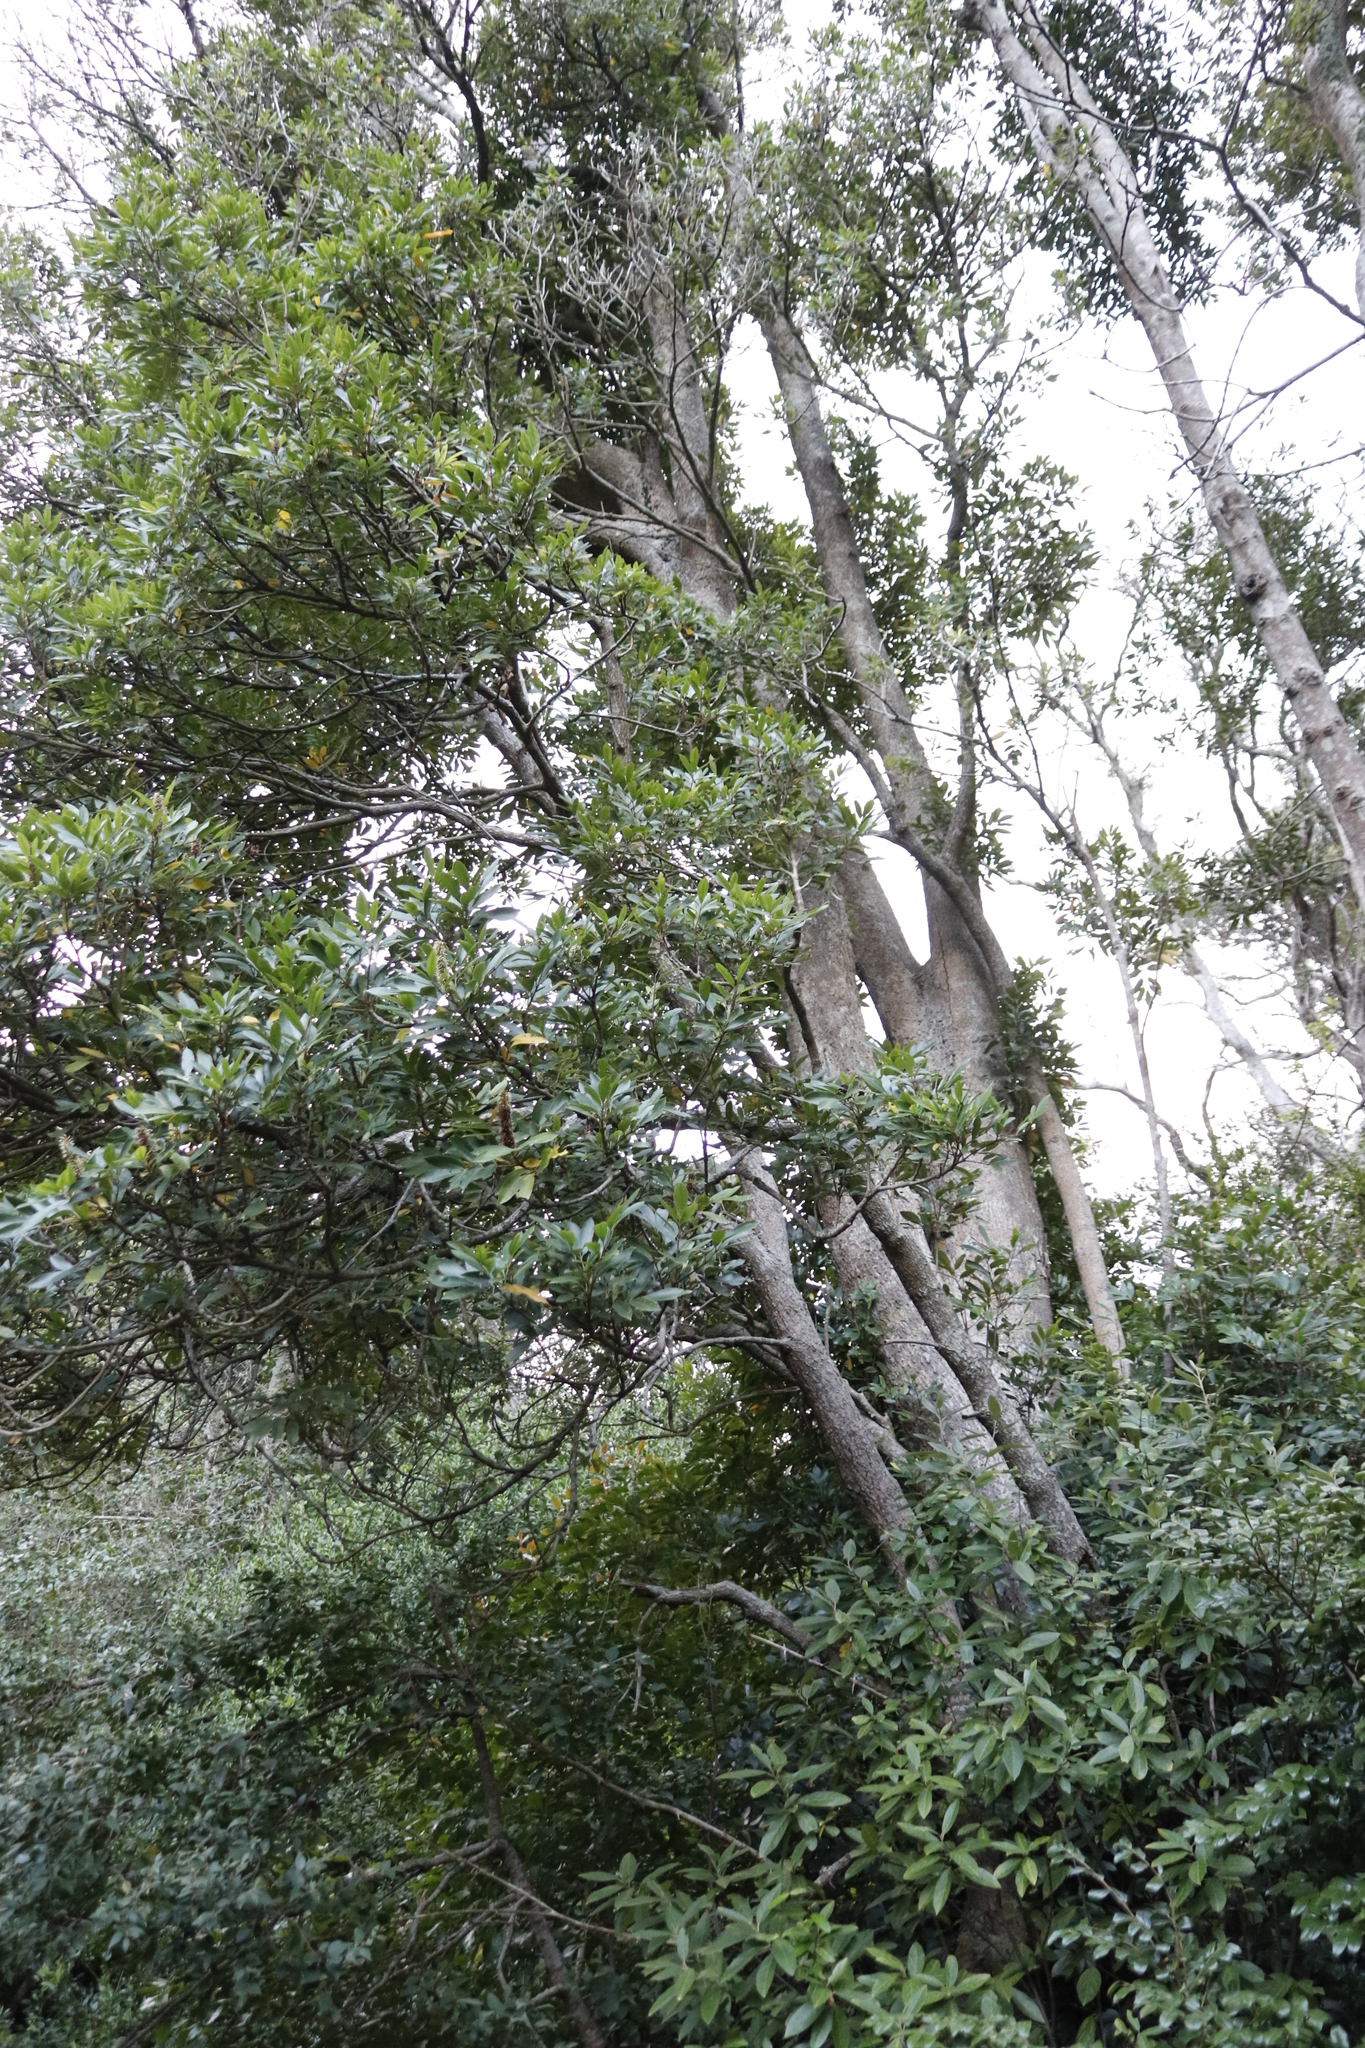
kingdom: Plantae
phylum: Tracheophyta
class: Magnoliopsida
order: Oxalidales
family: Cunoniaceae
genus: Cunonia
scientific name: Cunonia capensis
